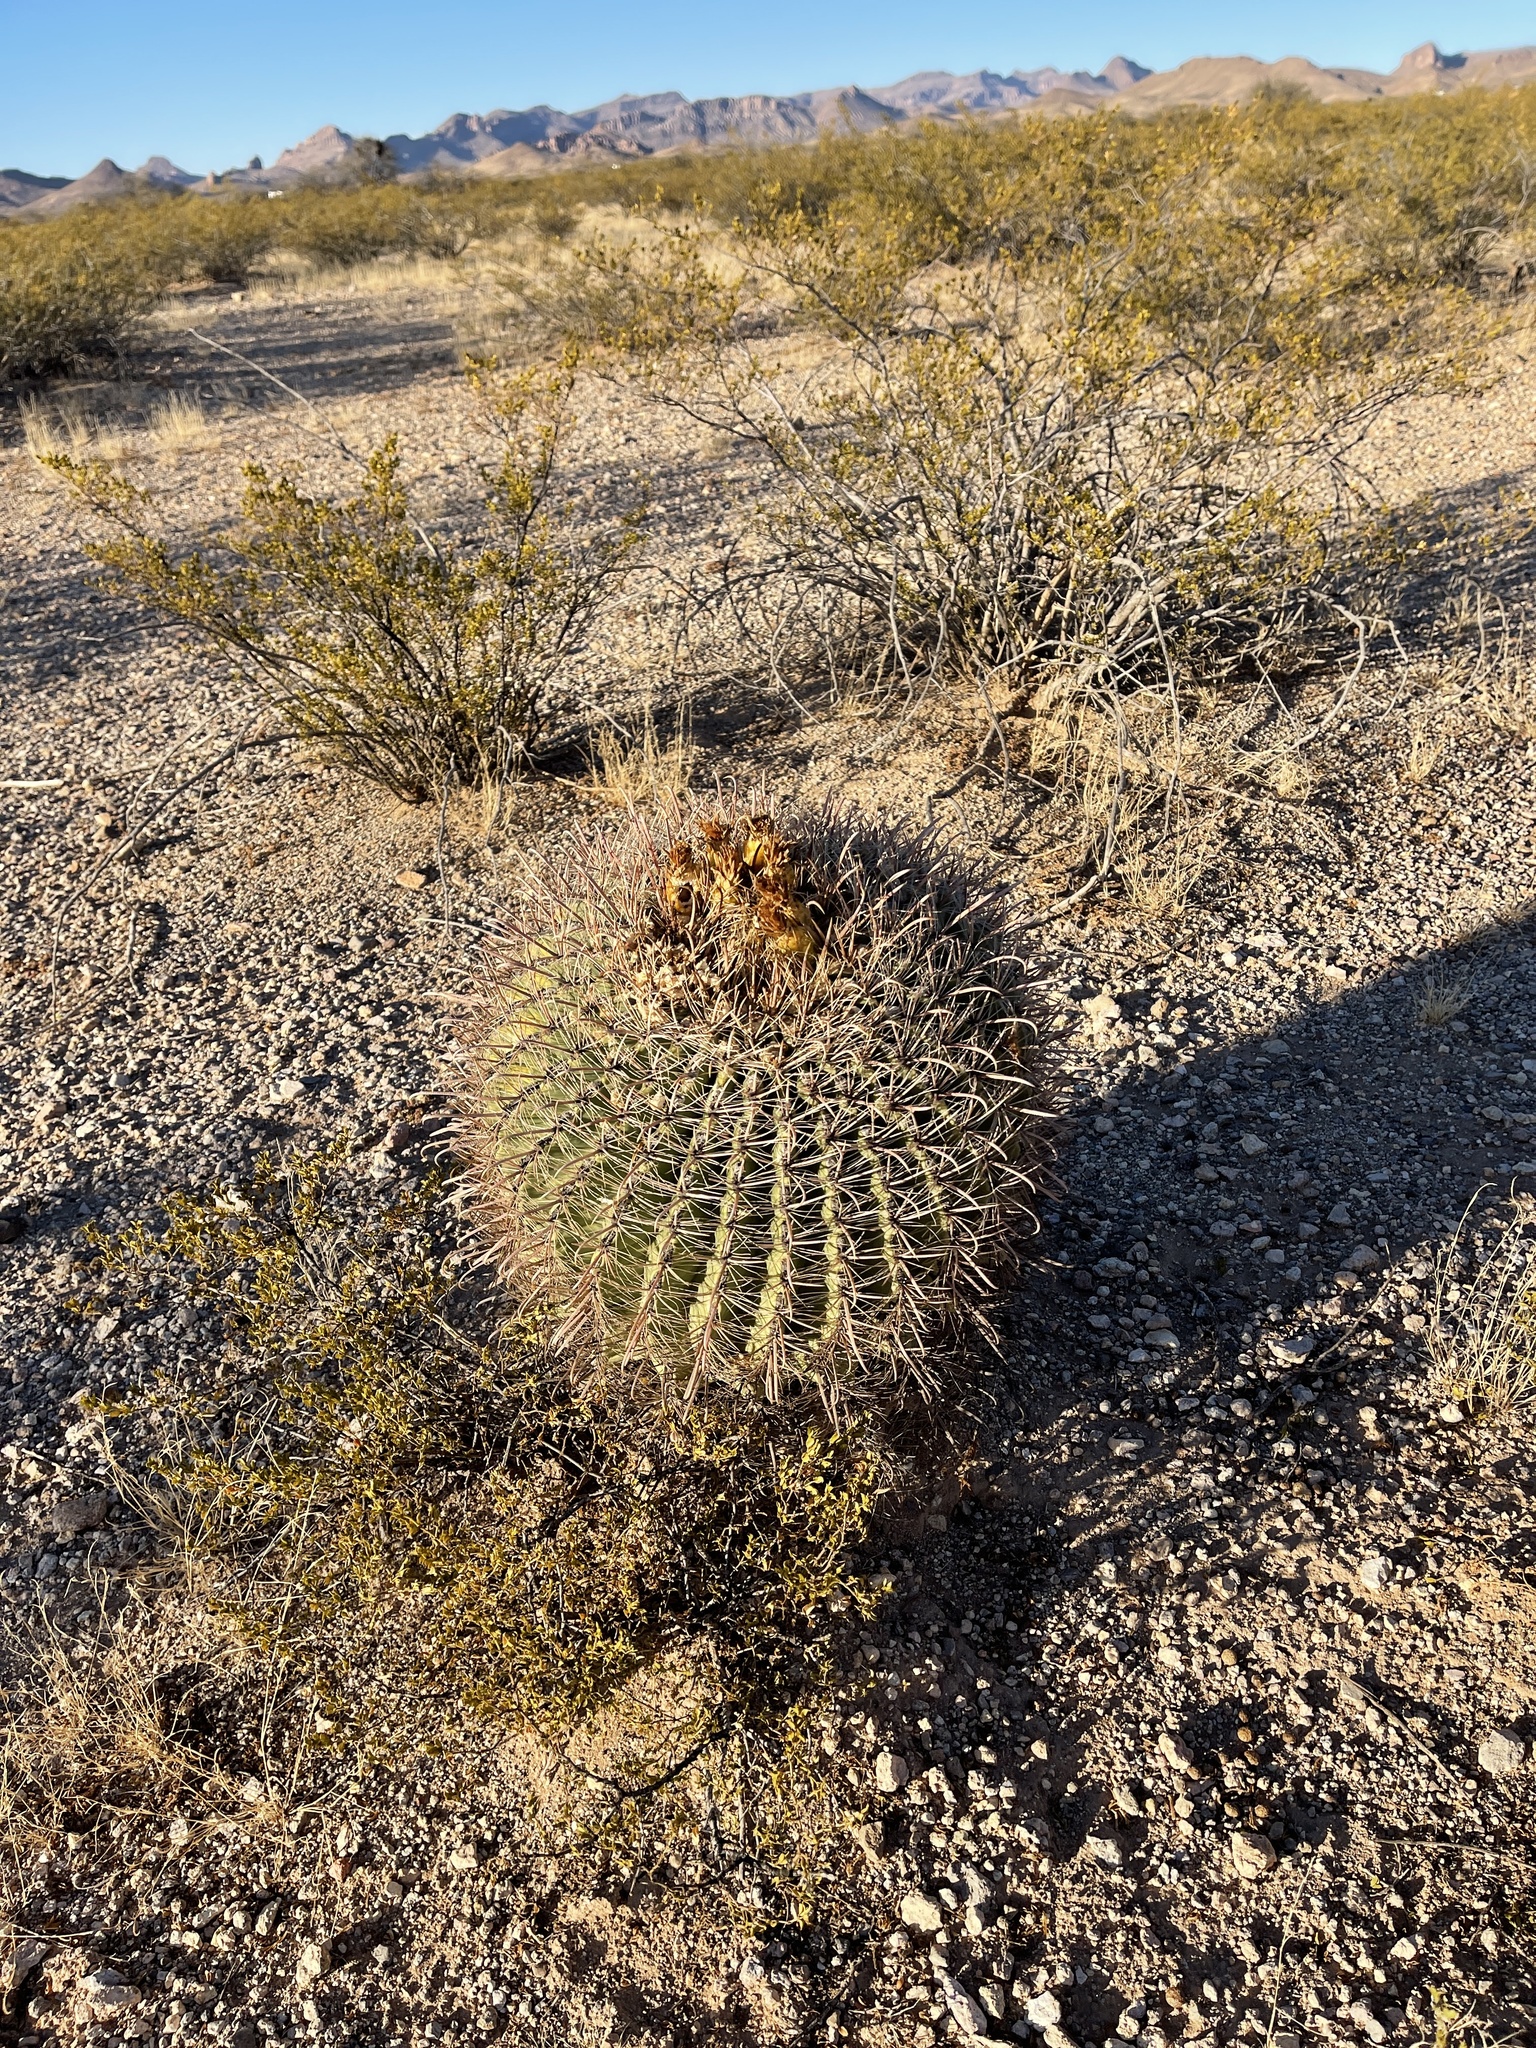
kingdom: Plantae
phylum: Tracheophyta
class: Magnoliopsida
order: Caryophyllales
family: Cactaceae
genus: Ferocactus
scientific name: Ferocactus wislizeni
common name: Candy barrel cactus
